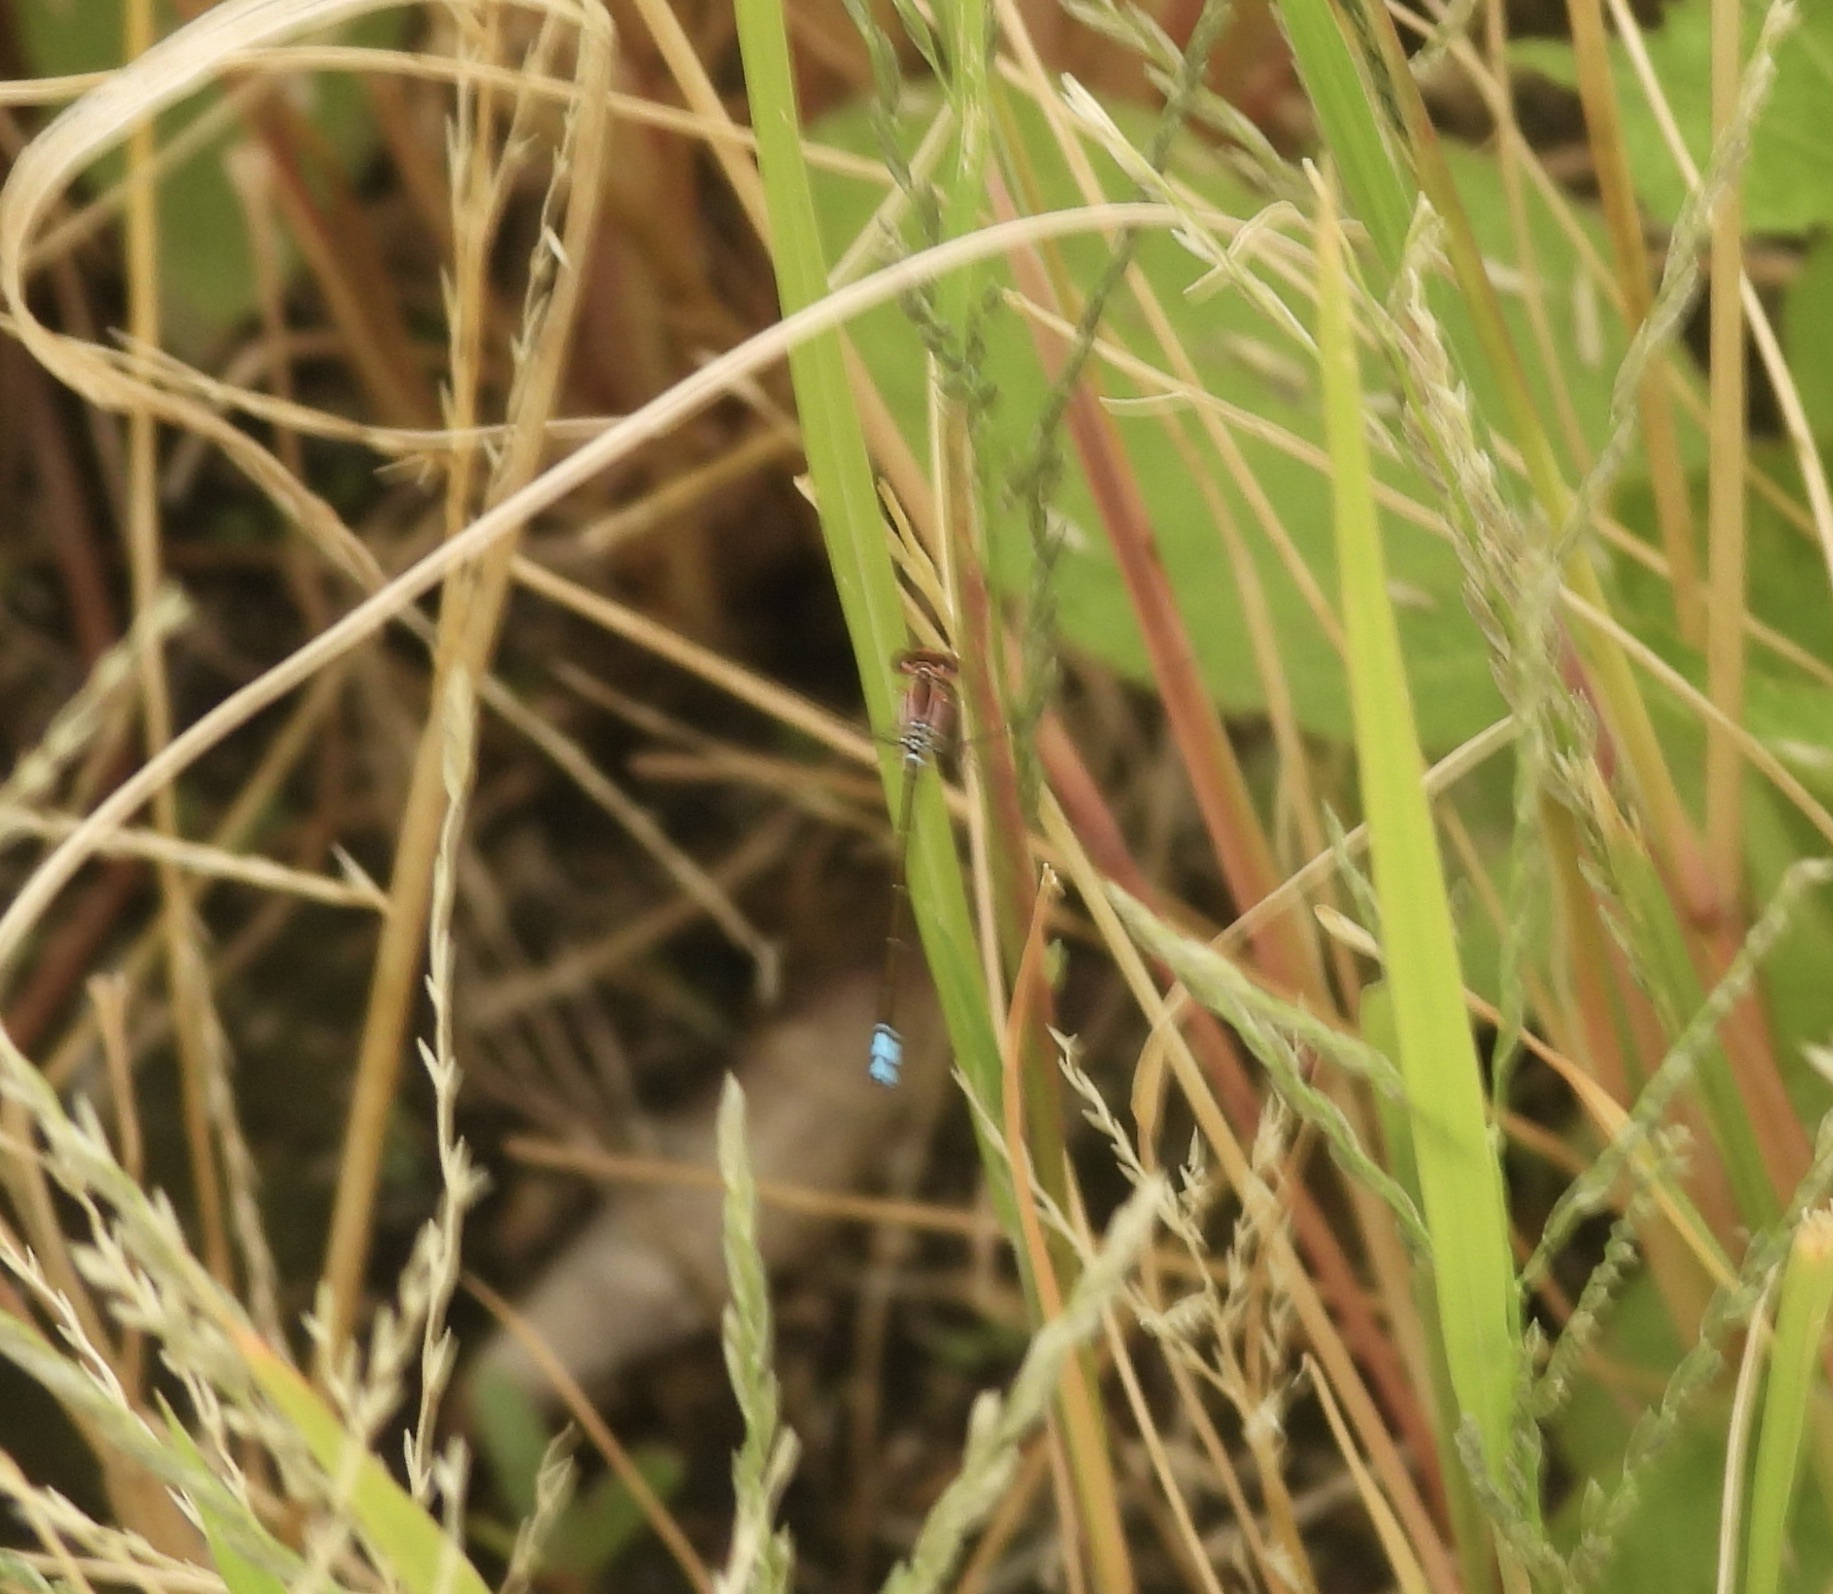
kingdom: Animalia
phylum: Arthropoda
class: Insecta
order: Odonata
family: Coenagrionidae
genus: Ischnura
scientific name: Ischnura denticollis
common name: Black-fronted forktail
